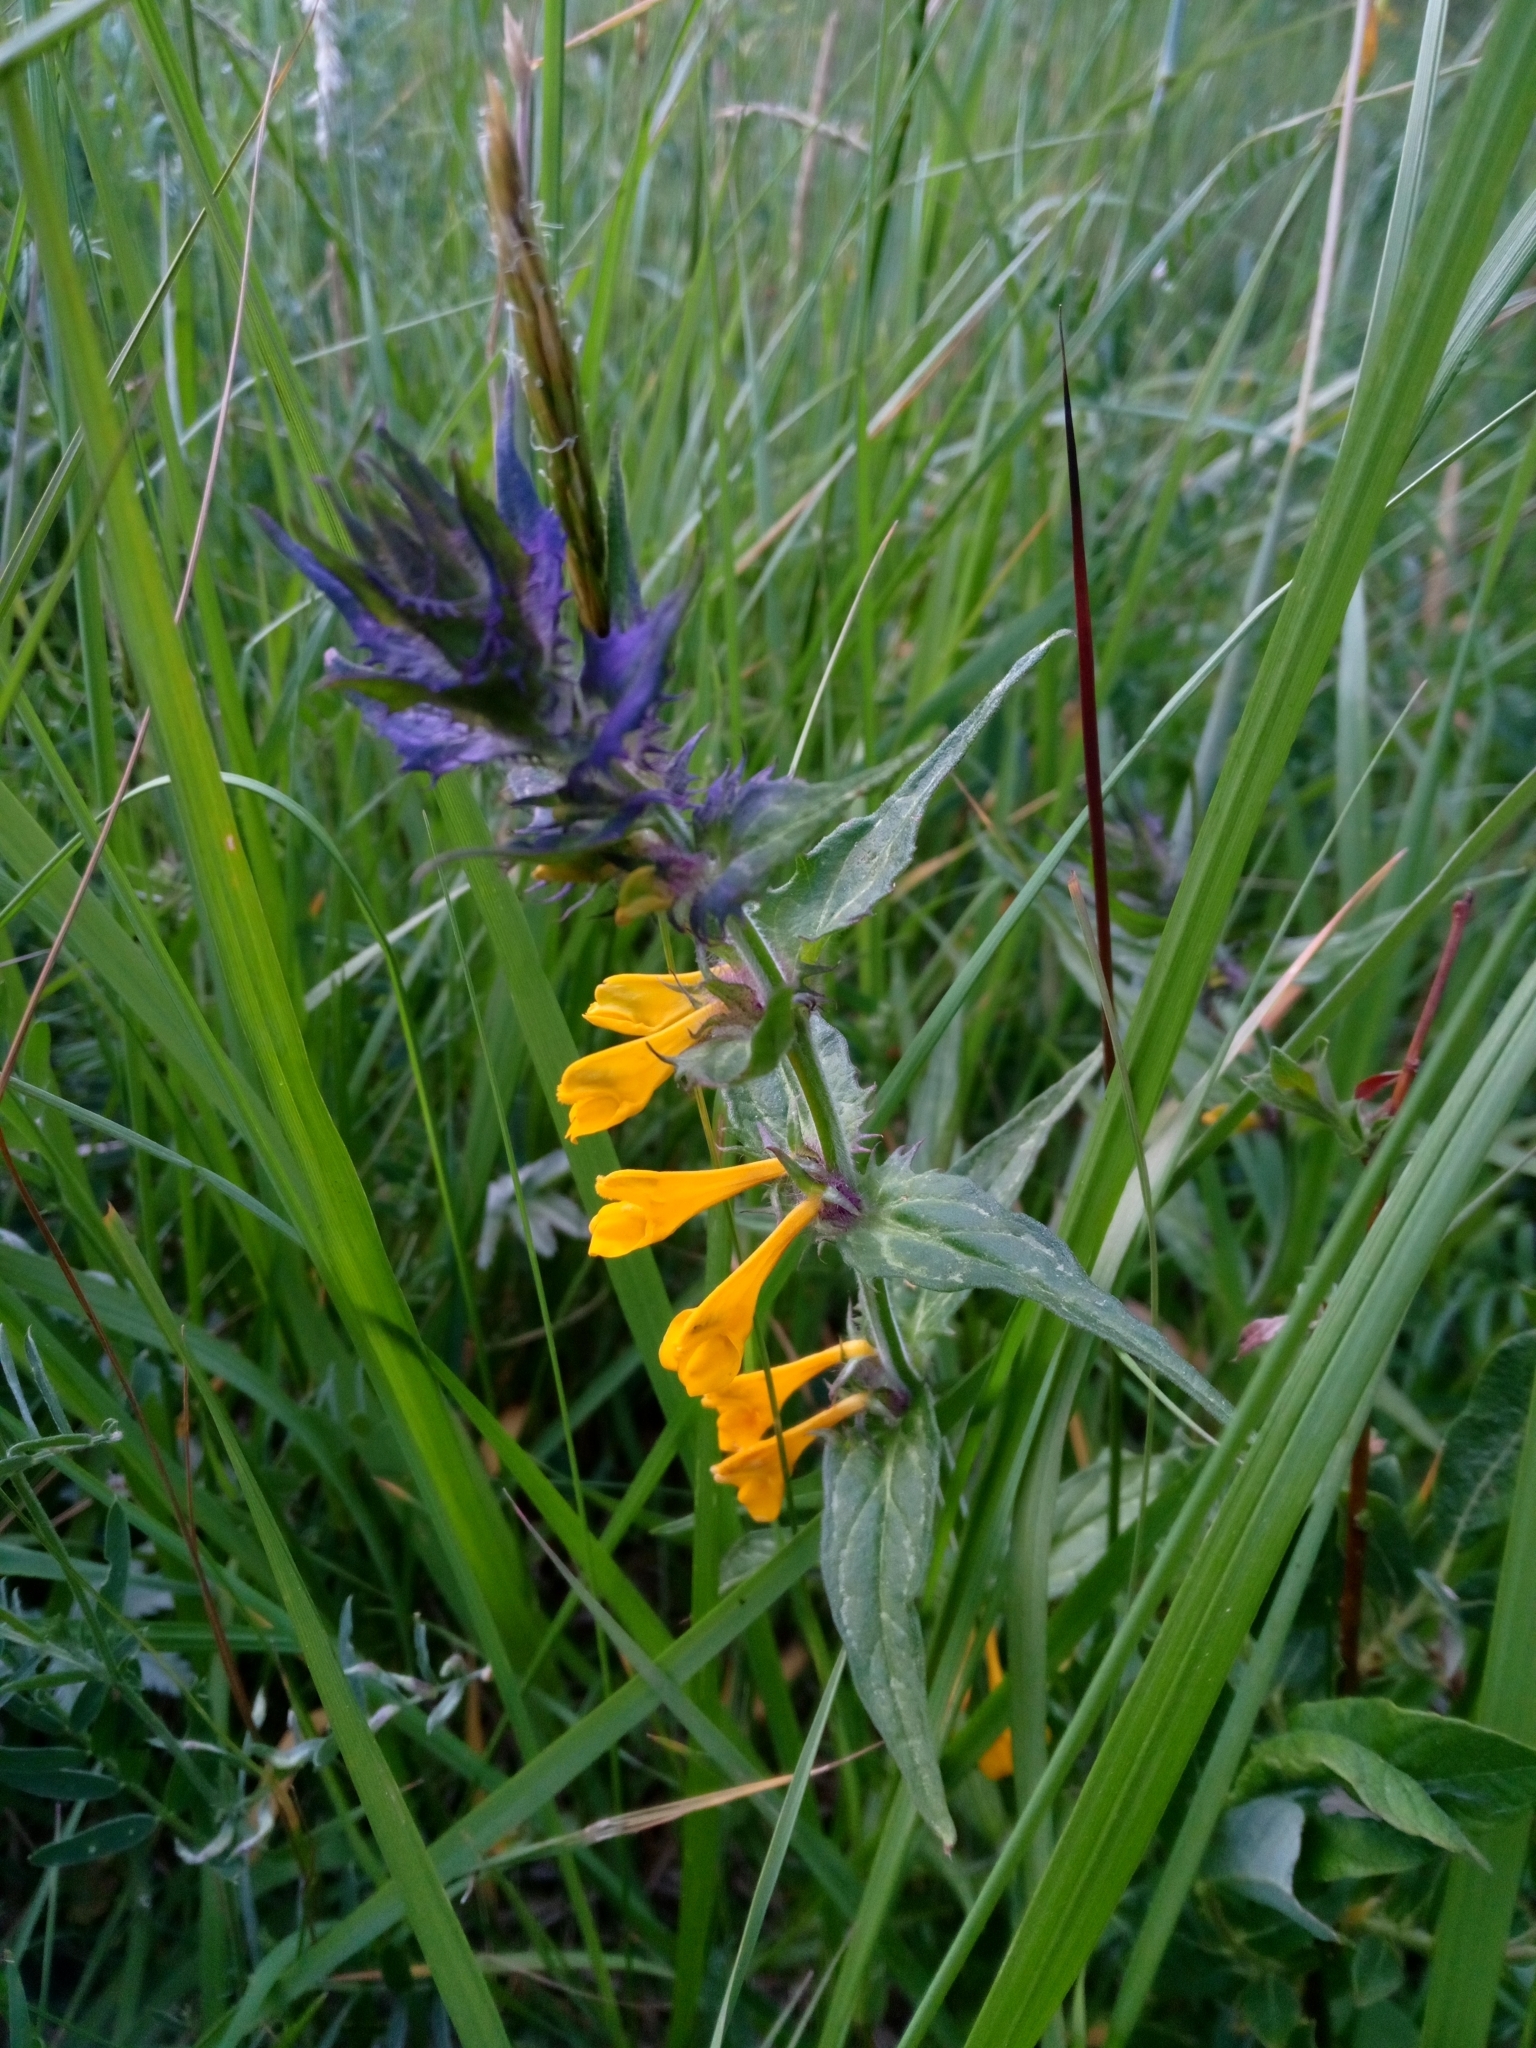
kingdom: Plantae
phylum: Tracheophyta
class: Magnoliopsida
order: Lamiales
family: Orobanchaceae
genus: Melampyrum
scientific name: Melampyrum nemorosum
